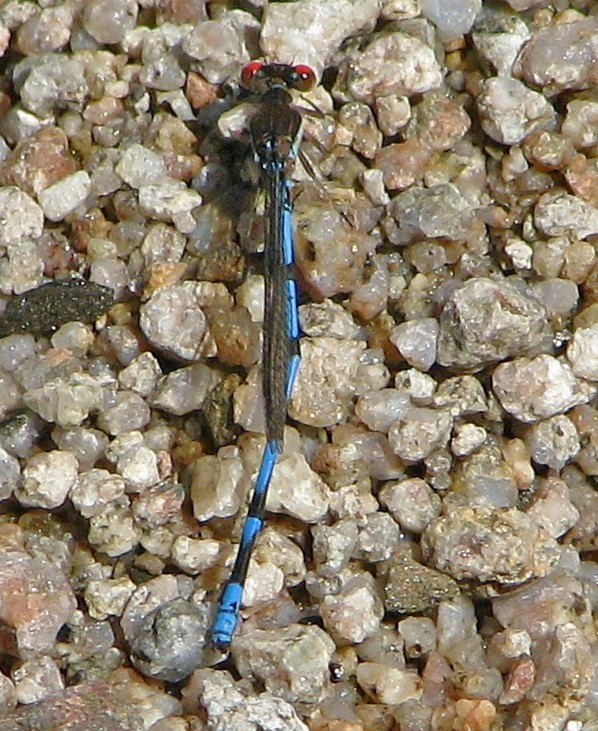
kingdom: Animalia
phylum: Arthropoda
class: Insecta
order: Odonata
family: Coenagrionidae
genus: Argia
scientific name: Argia joergenseni
